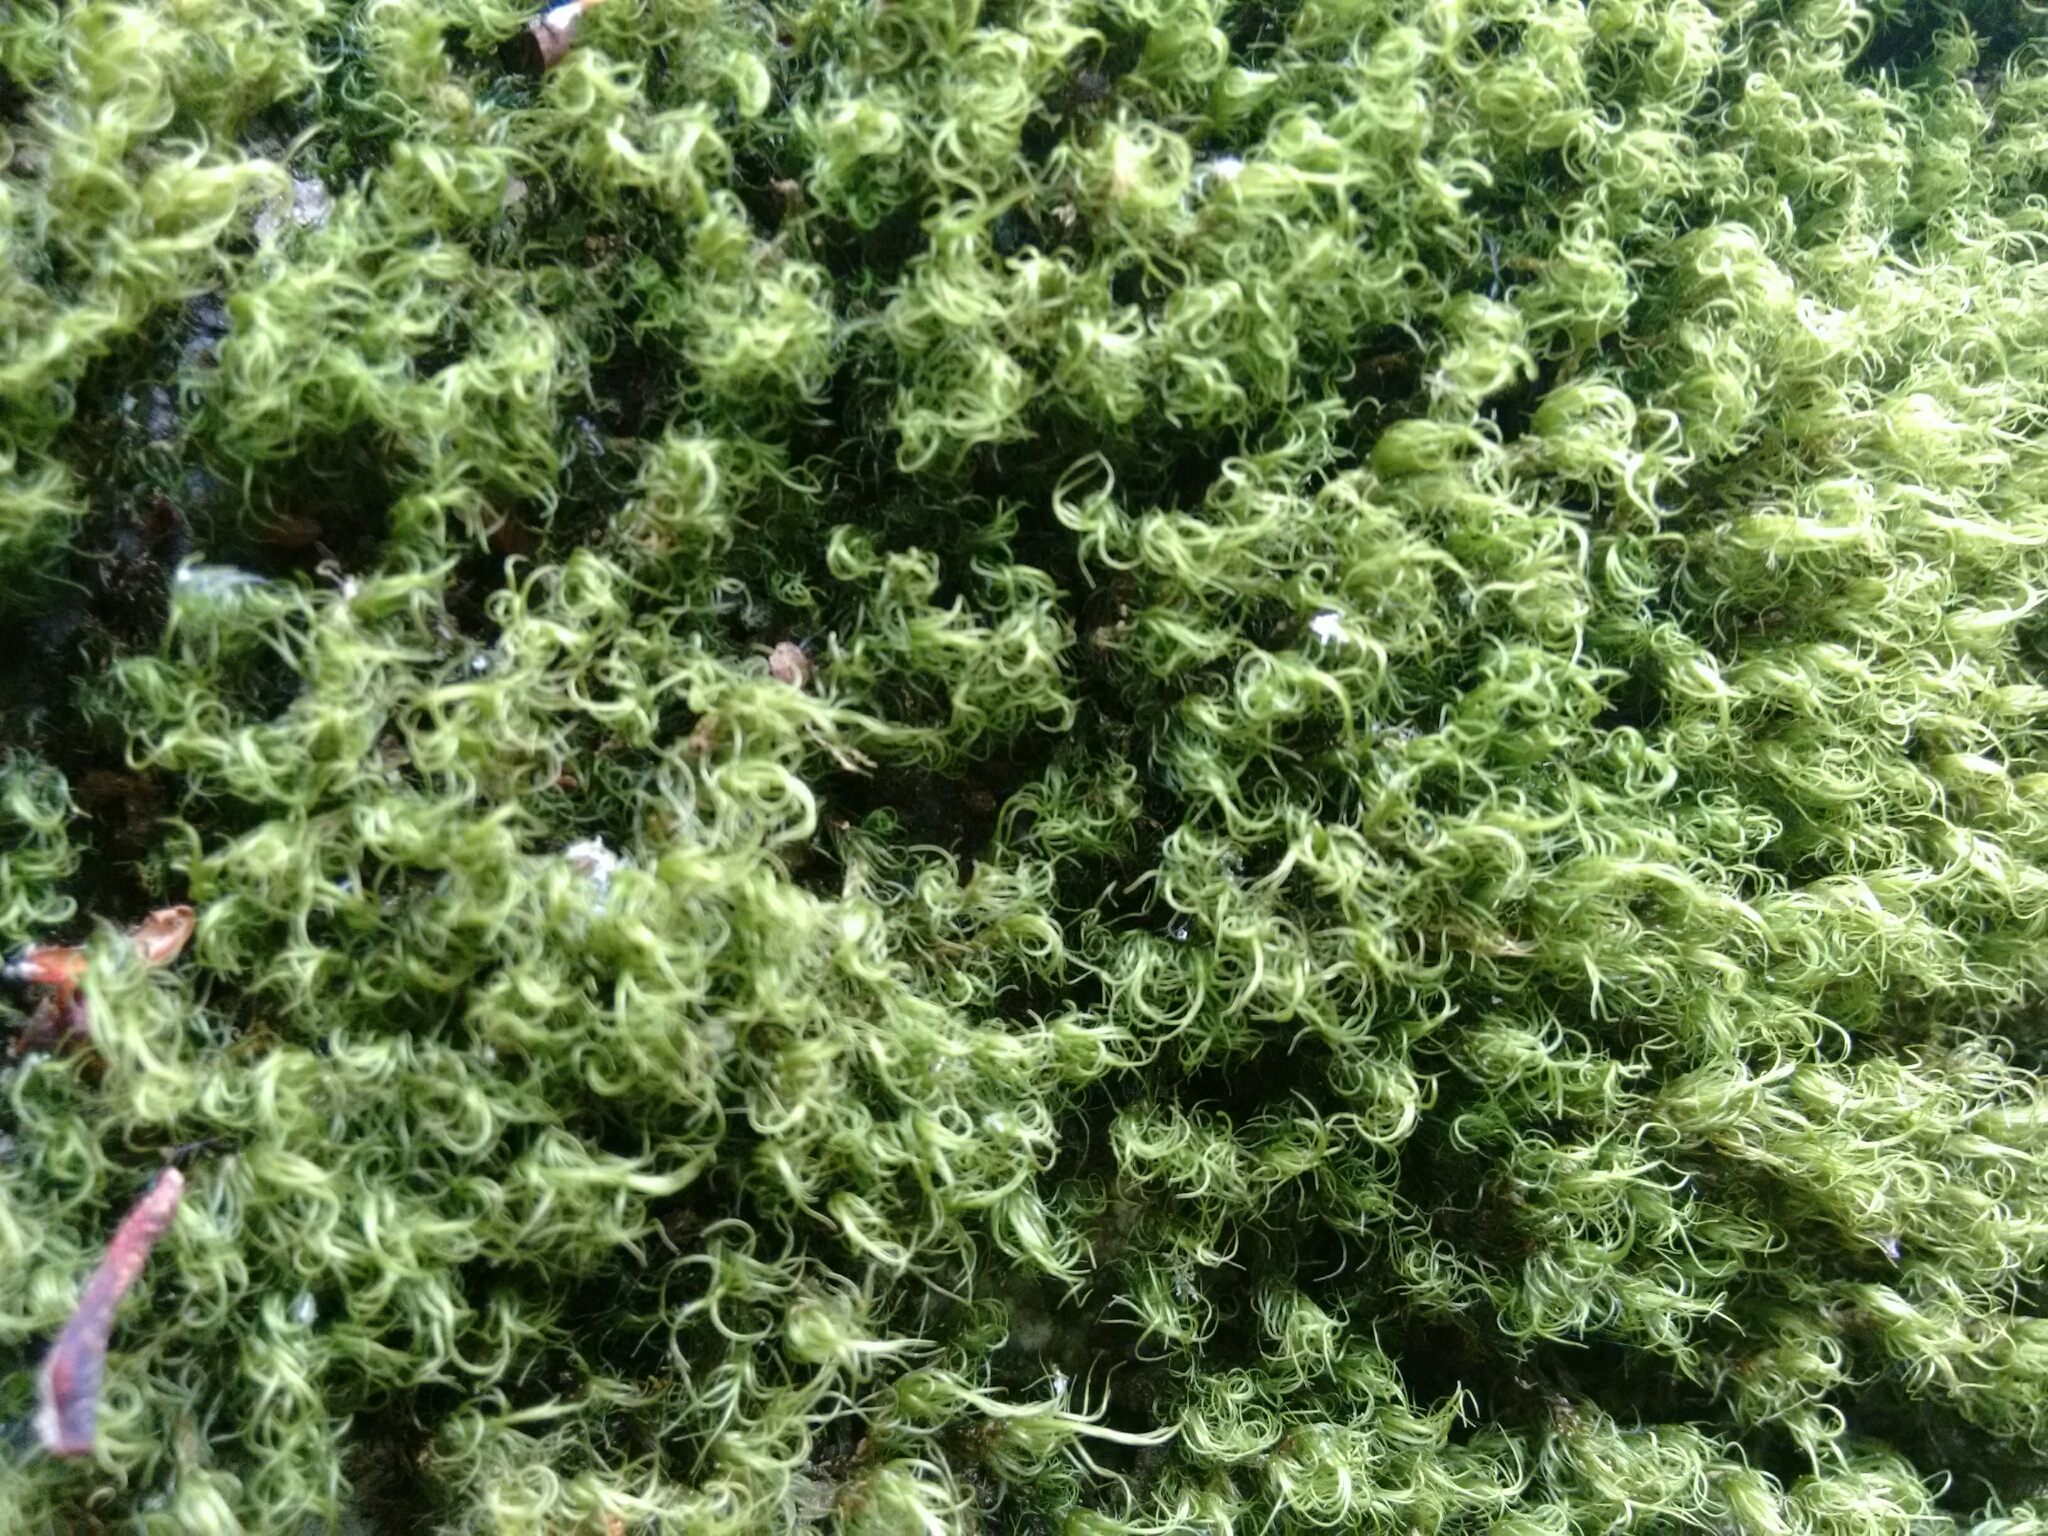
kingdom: Plantae
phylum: Bryophyta
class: Bryopsida
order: Dicranales
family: Dicranaceae
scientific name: Dicranaceae
